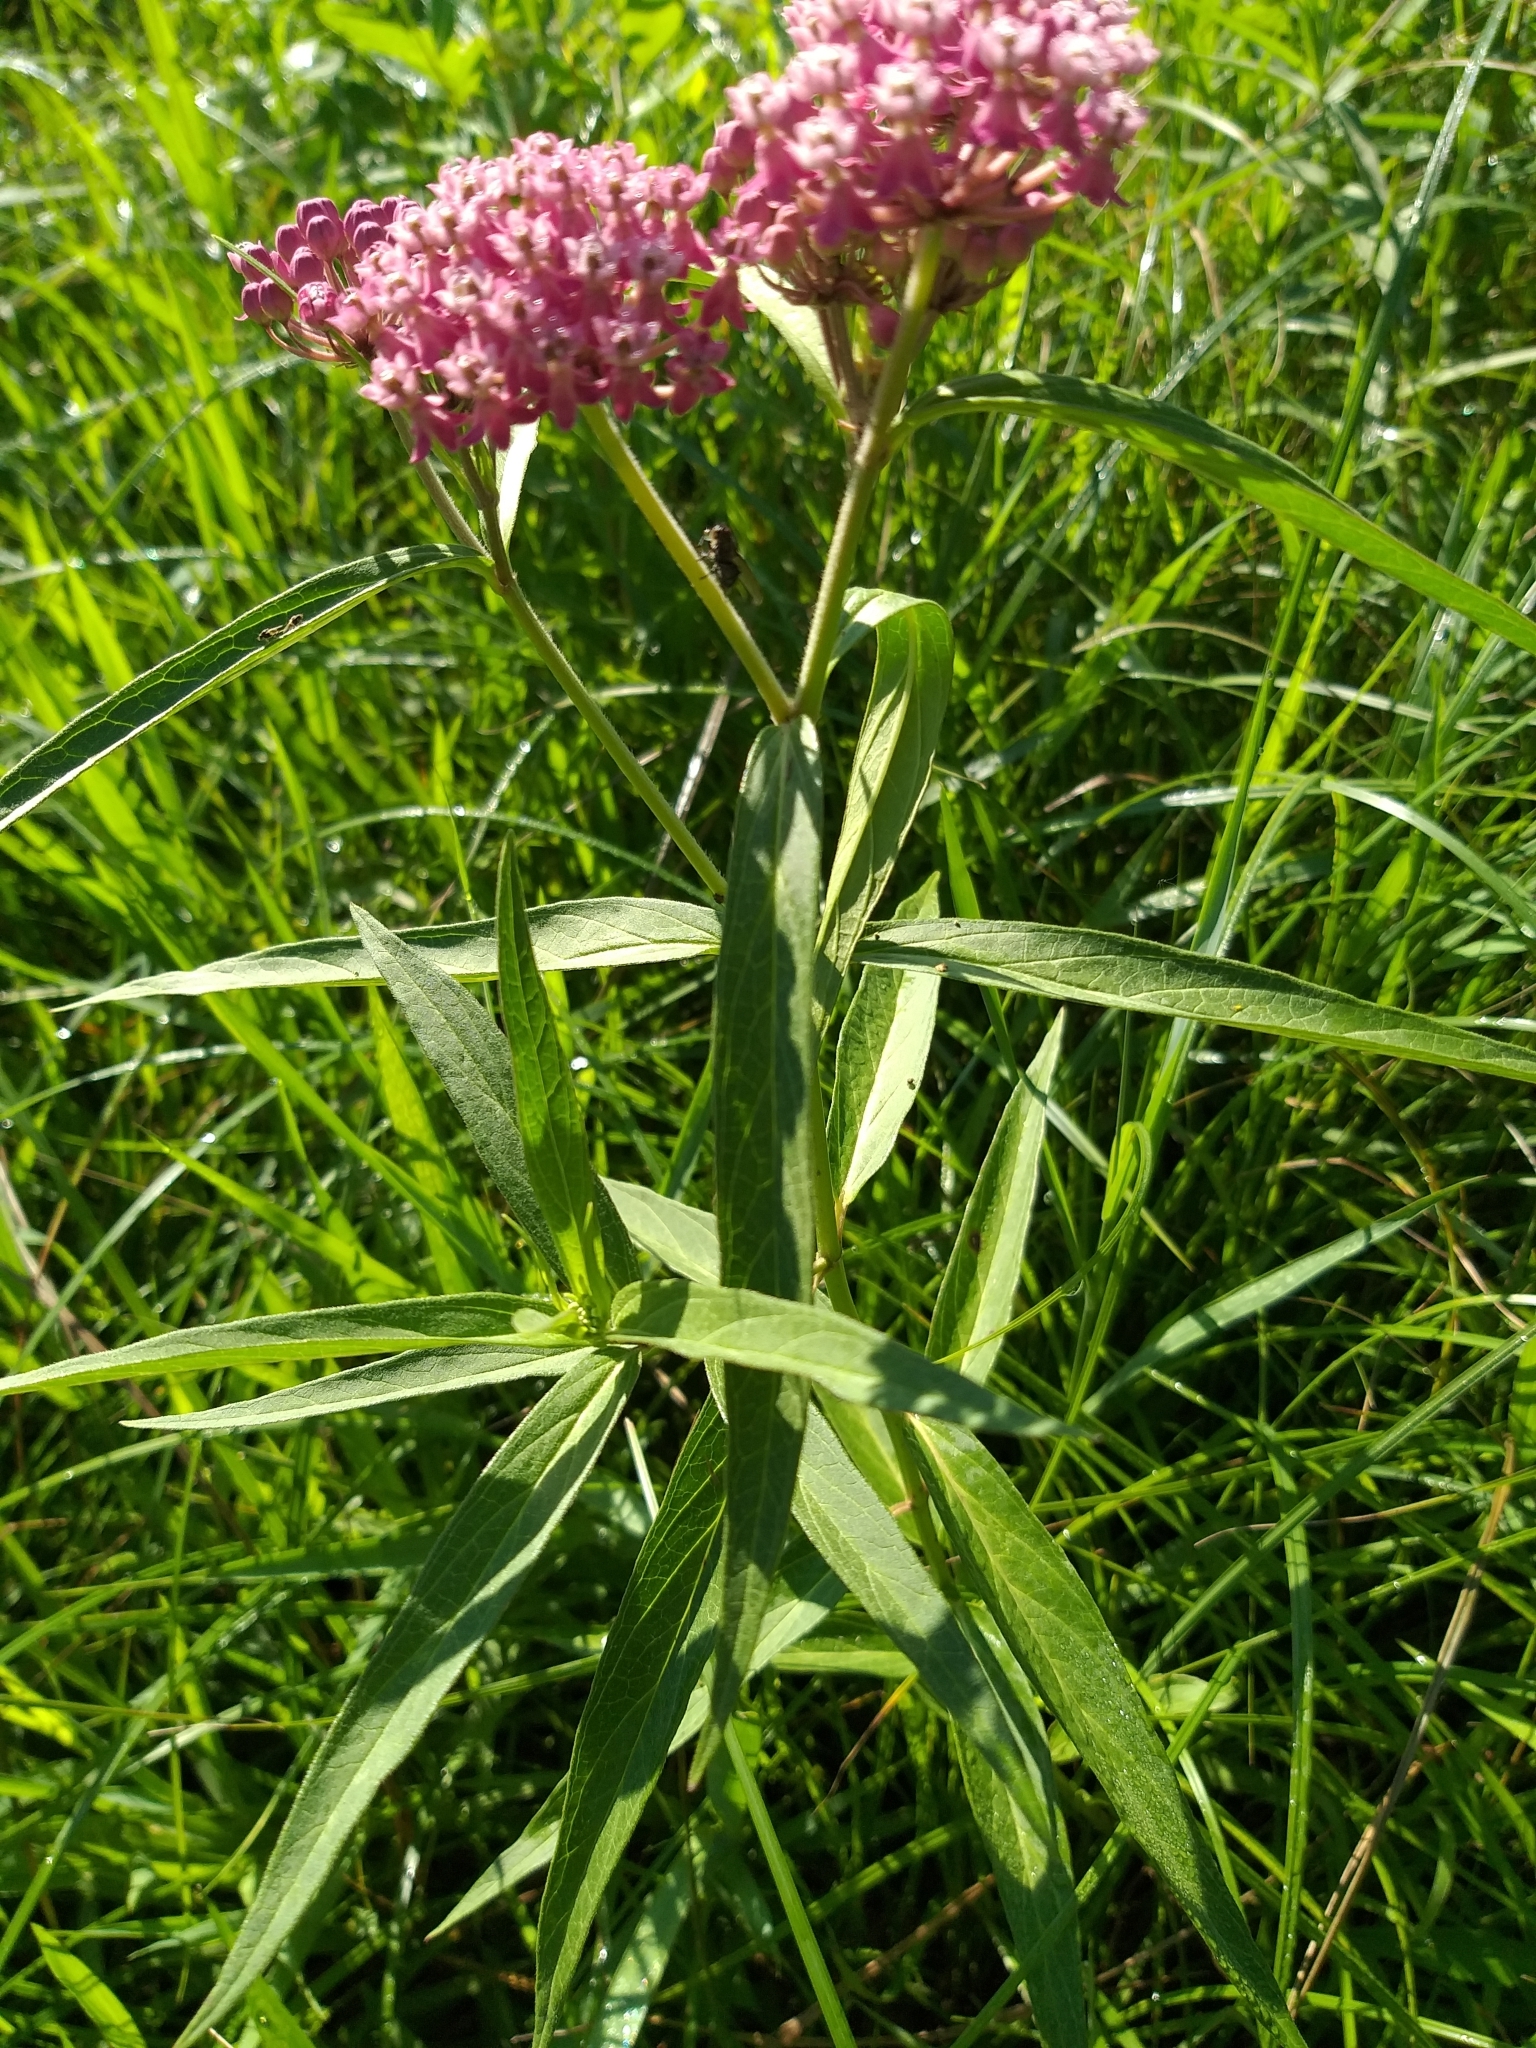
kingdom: Plantae
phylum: Tracheophyta
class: Magnoliopsida
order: Gentianales
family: Apocynaceae
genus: Asclepias
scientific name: Asclepias incarnata
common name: Swamp milkweed
